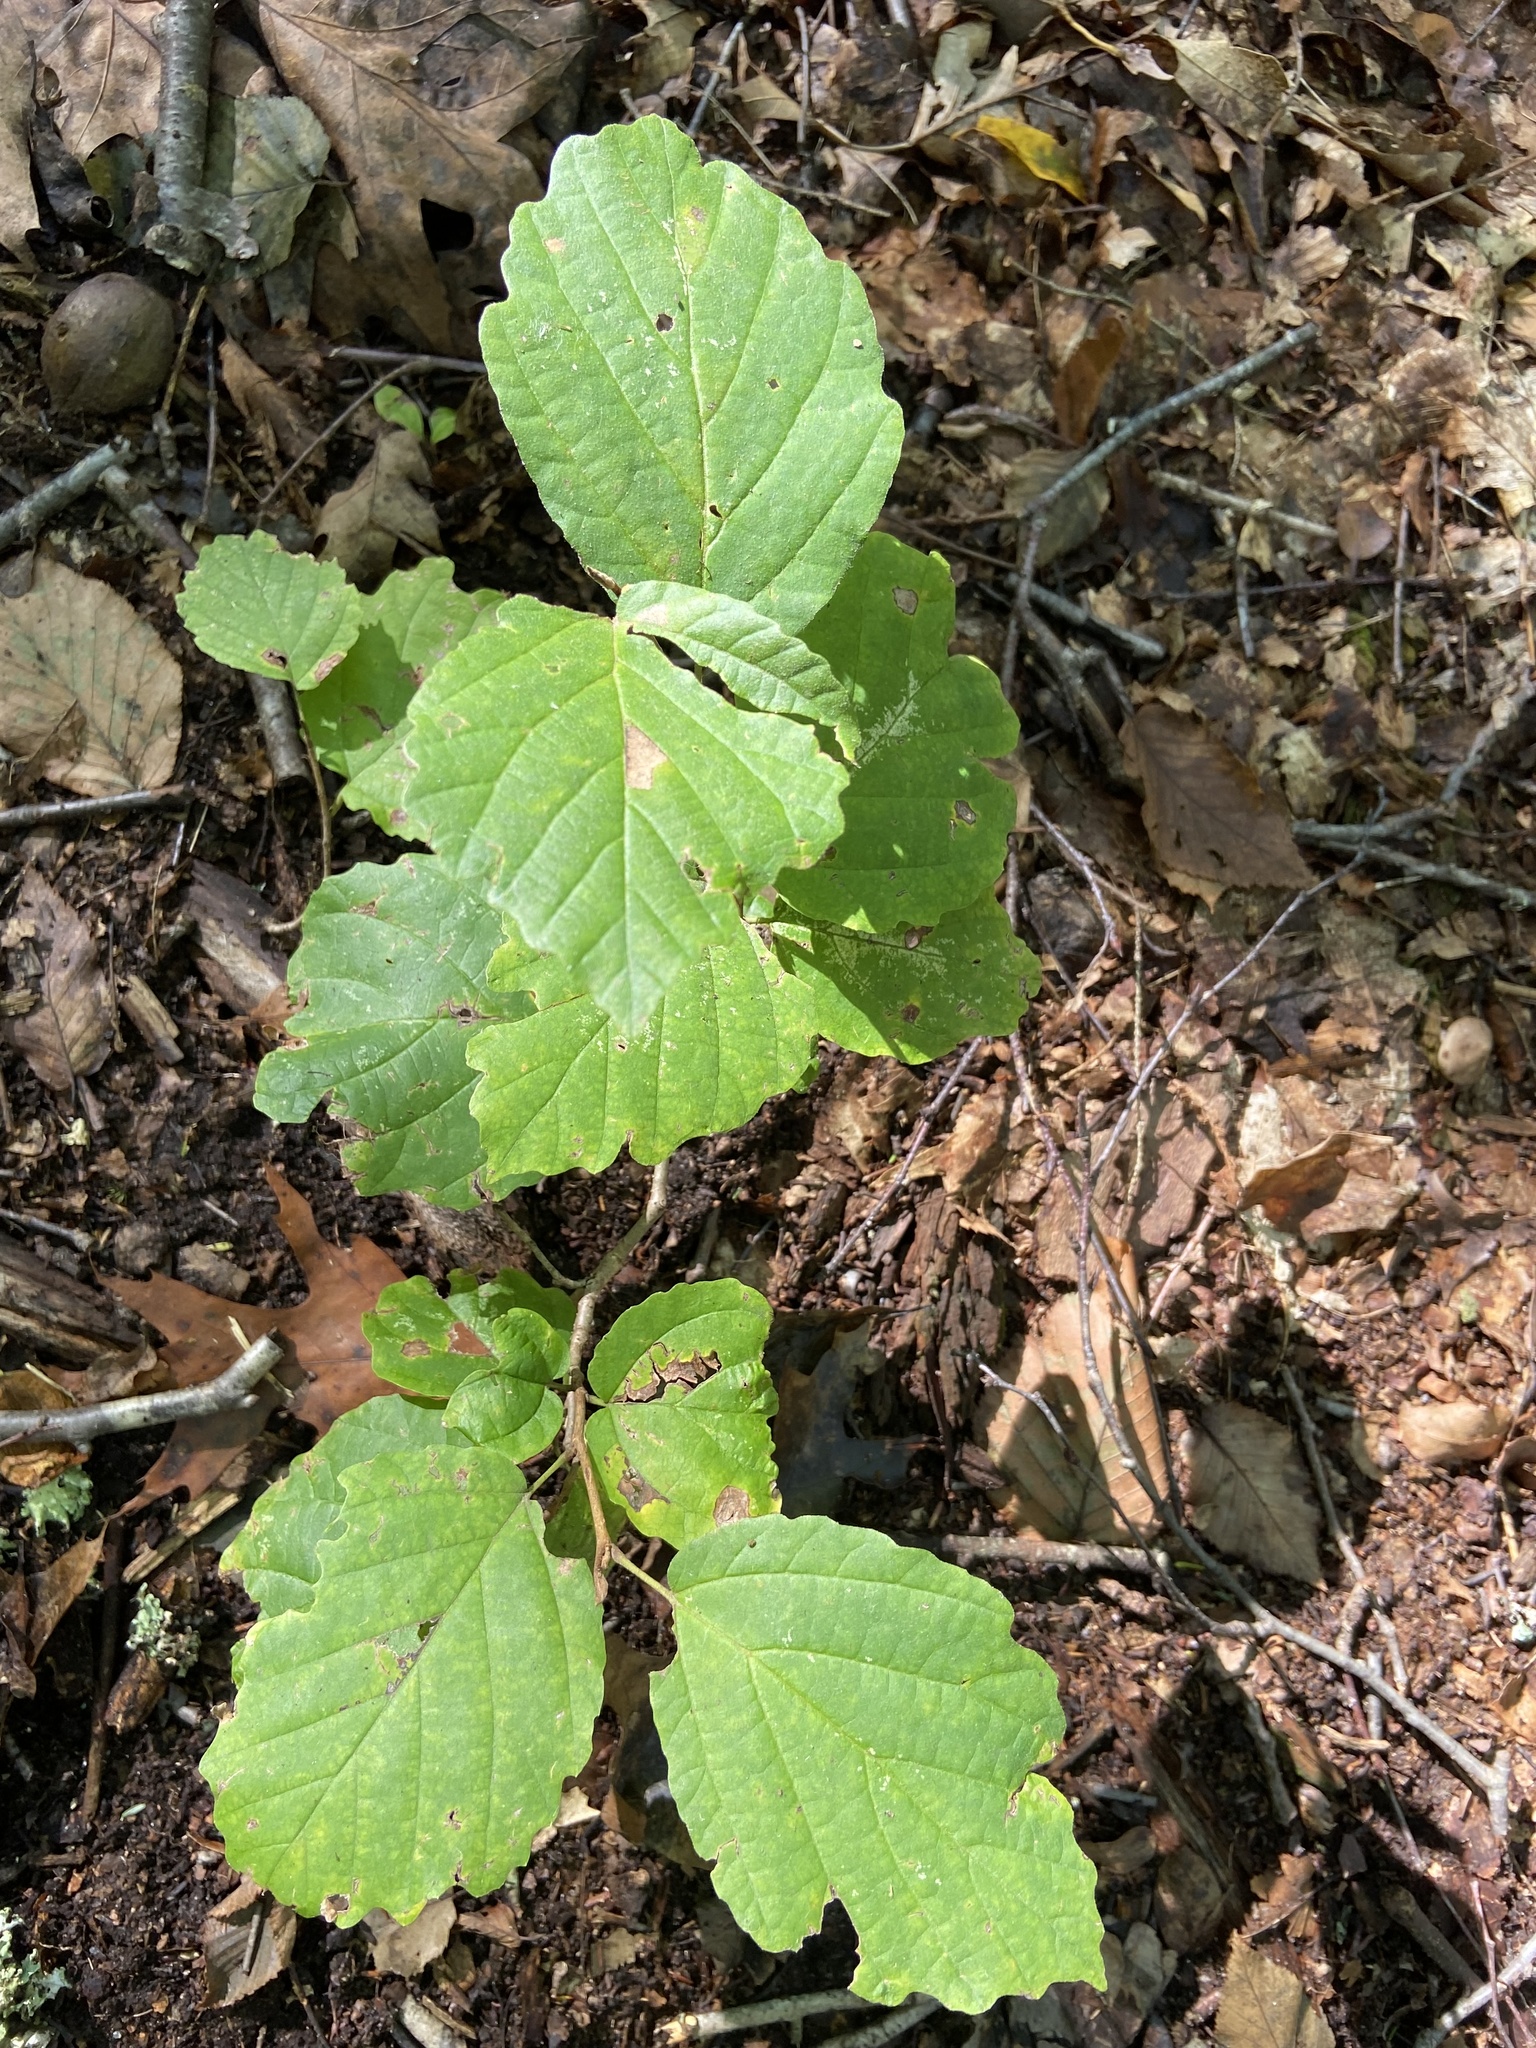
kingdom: Plantae
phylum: Tracheophyta
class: Magnoliopsida
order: Saxifragales
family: Hamamelidaceae
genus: Hamamelis
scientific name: Hamamelis virginiana
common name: Witch-hazel
